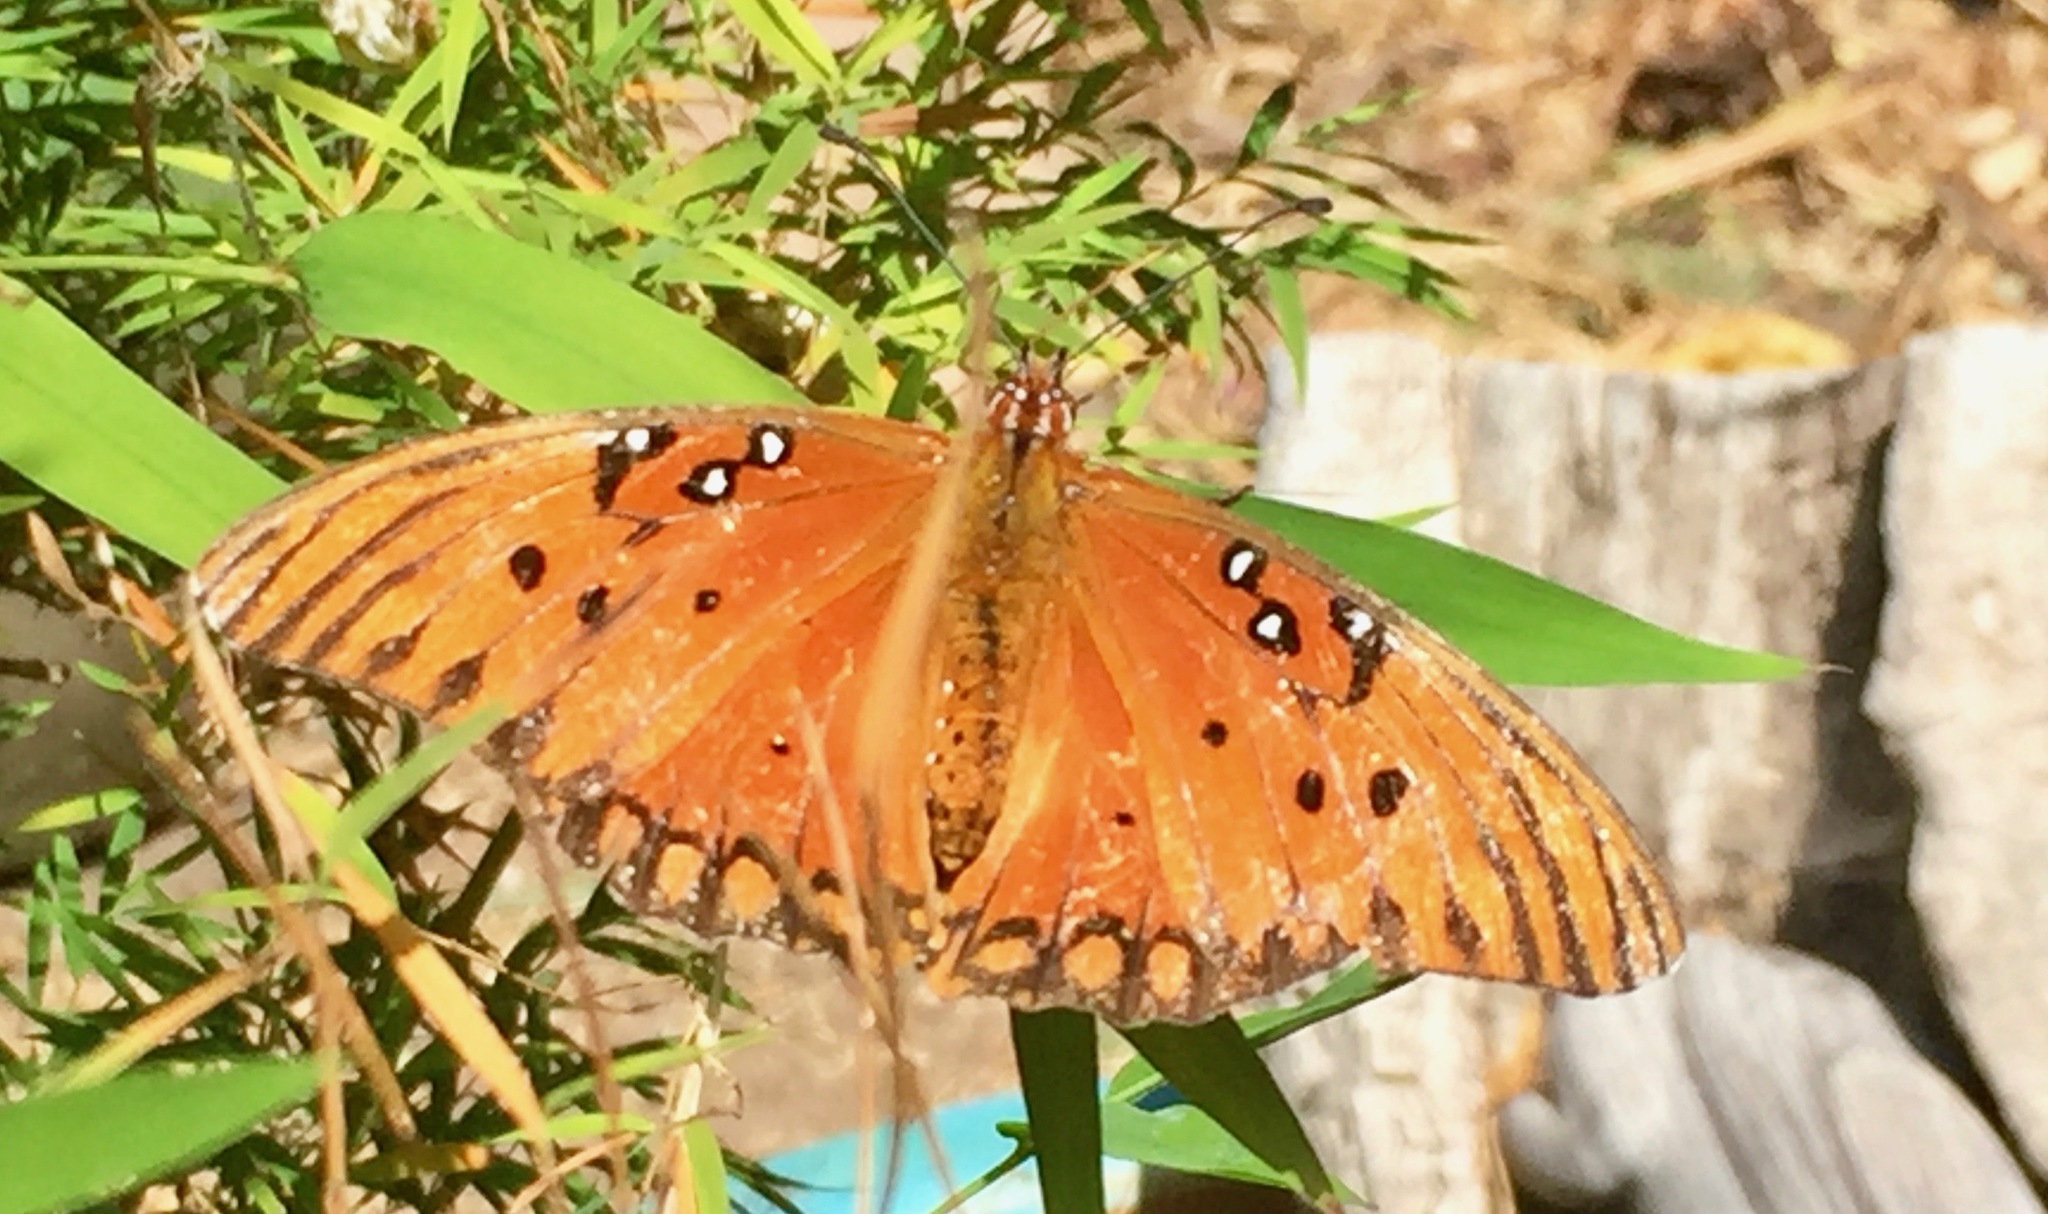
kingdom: Animalia
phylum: Arthropoda
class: Insecta
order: Lepidoptera
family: Nymphalidae
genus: Dione
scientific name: Dione vanillae
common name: Gulf fritillary
